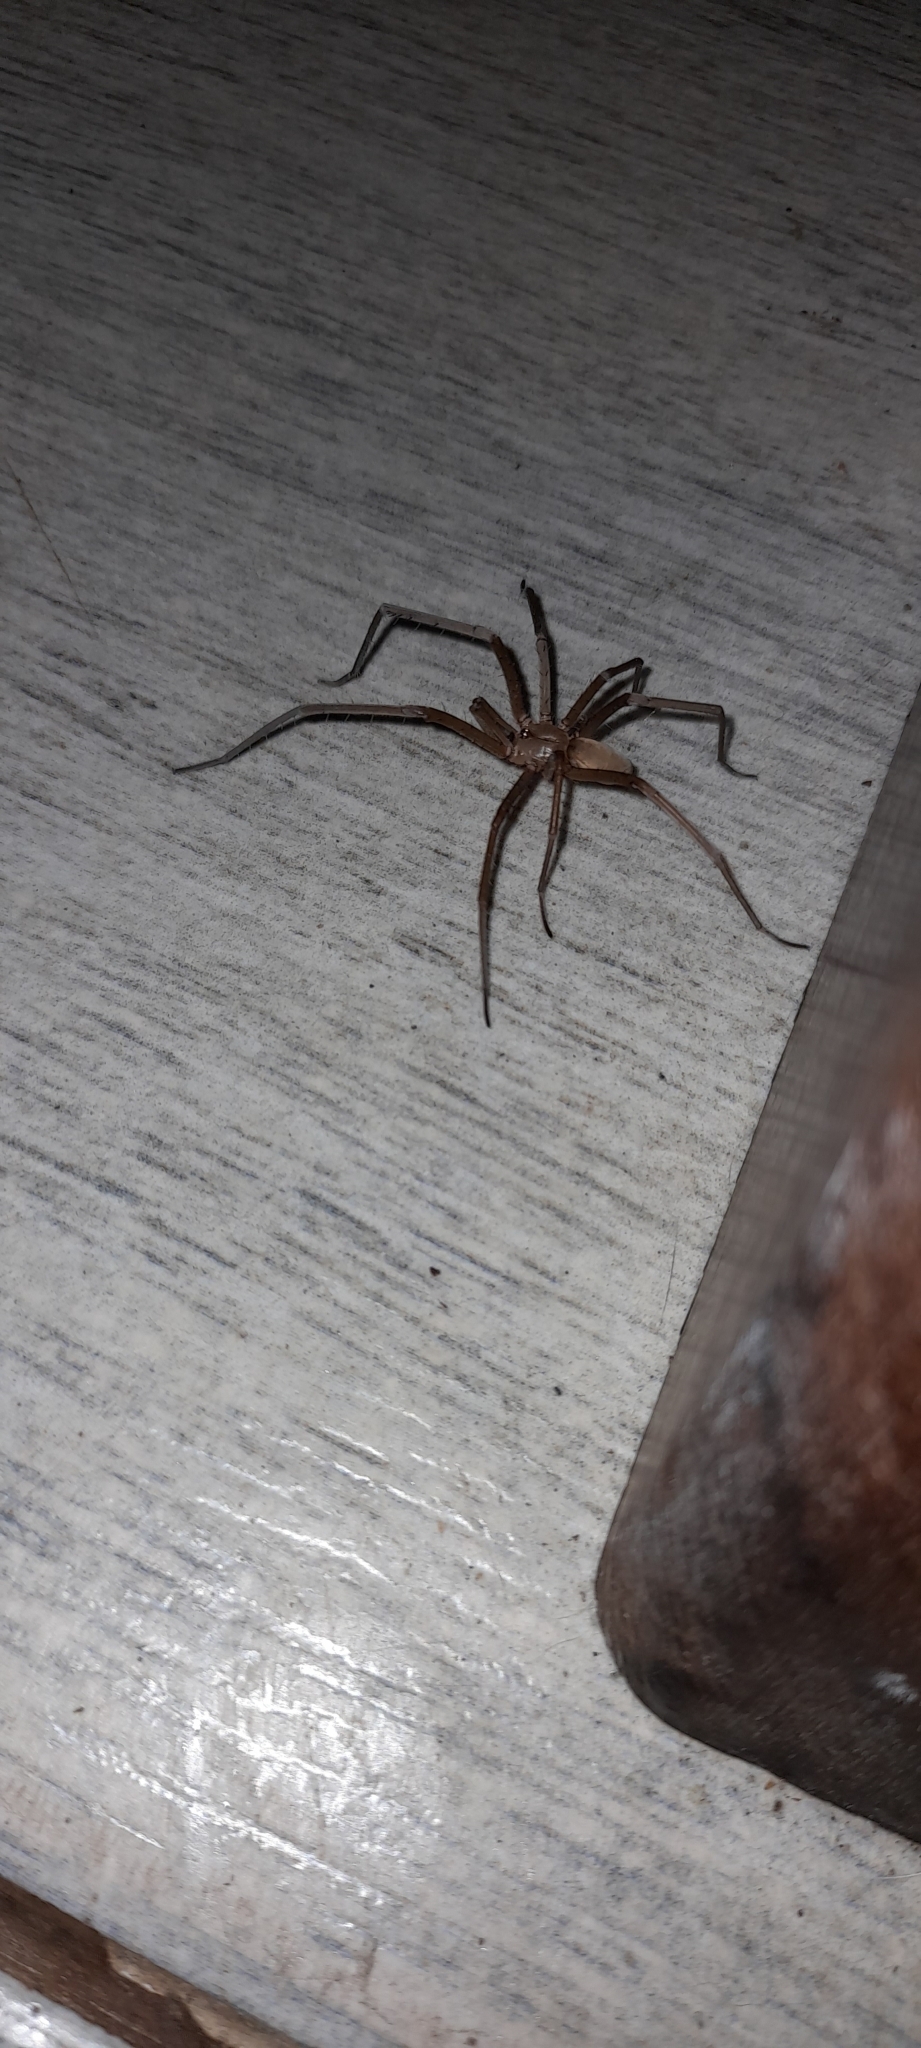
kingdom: Animalia
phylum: Arthropoda
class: Arachnida
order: Araneae
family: Filistatidae
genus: Kukulcania
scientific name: Kukulcania hibernalis
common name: Crevice weaver
